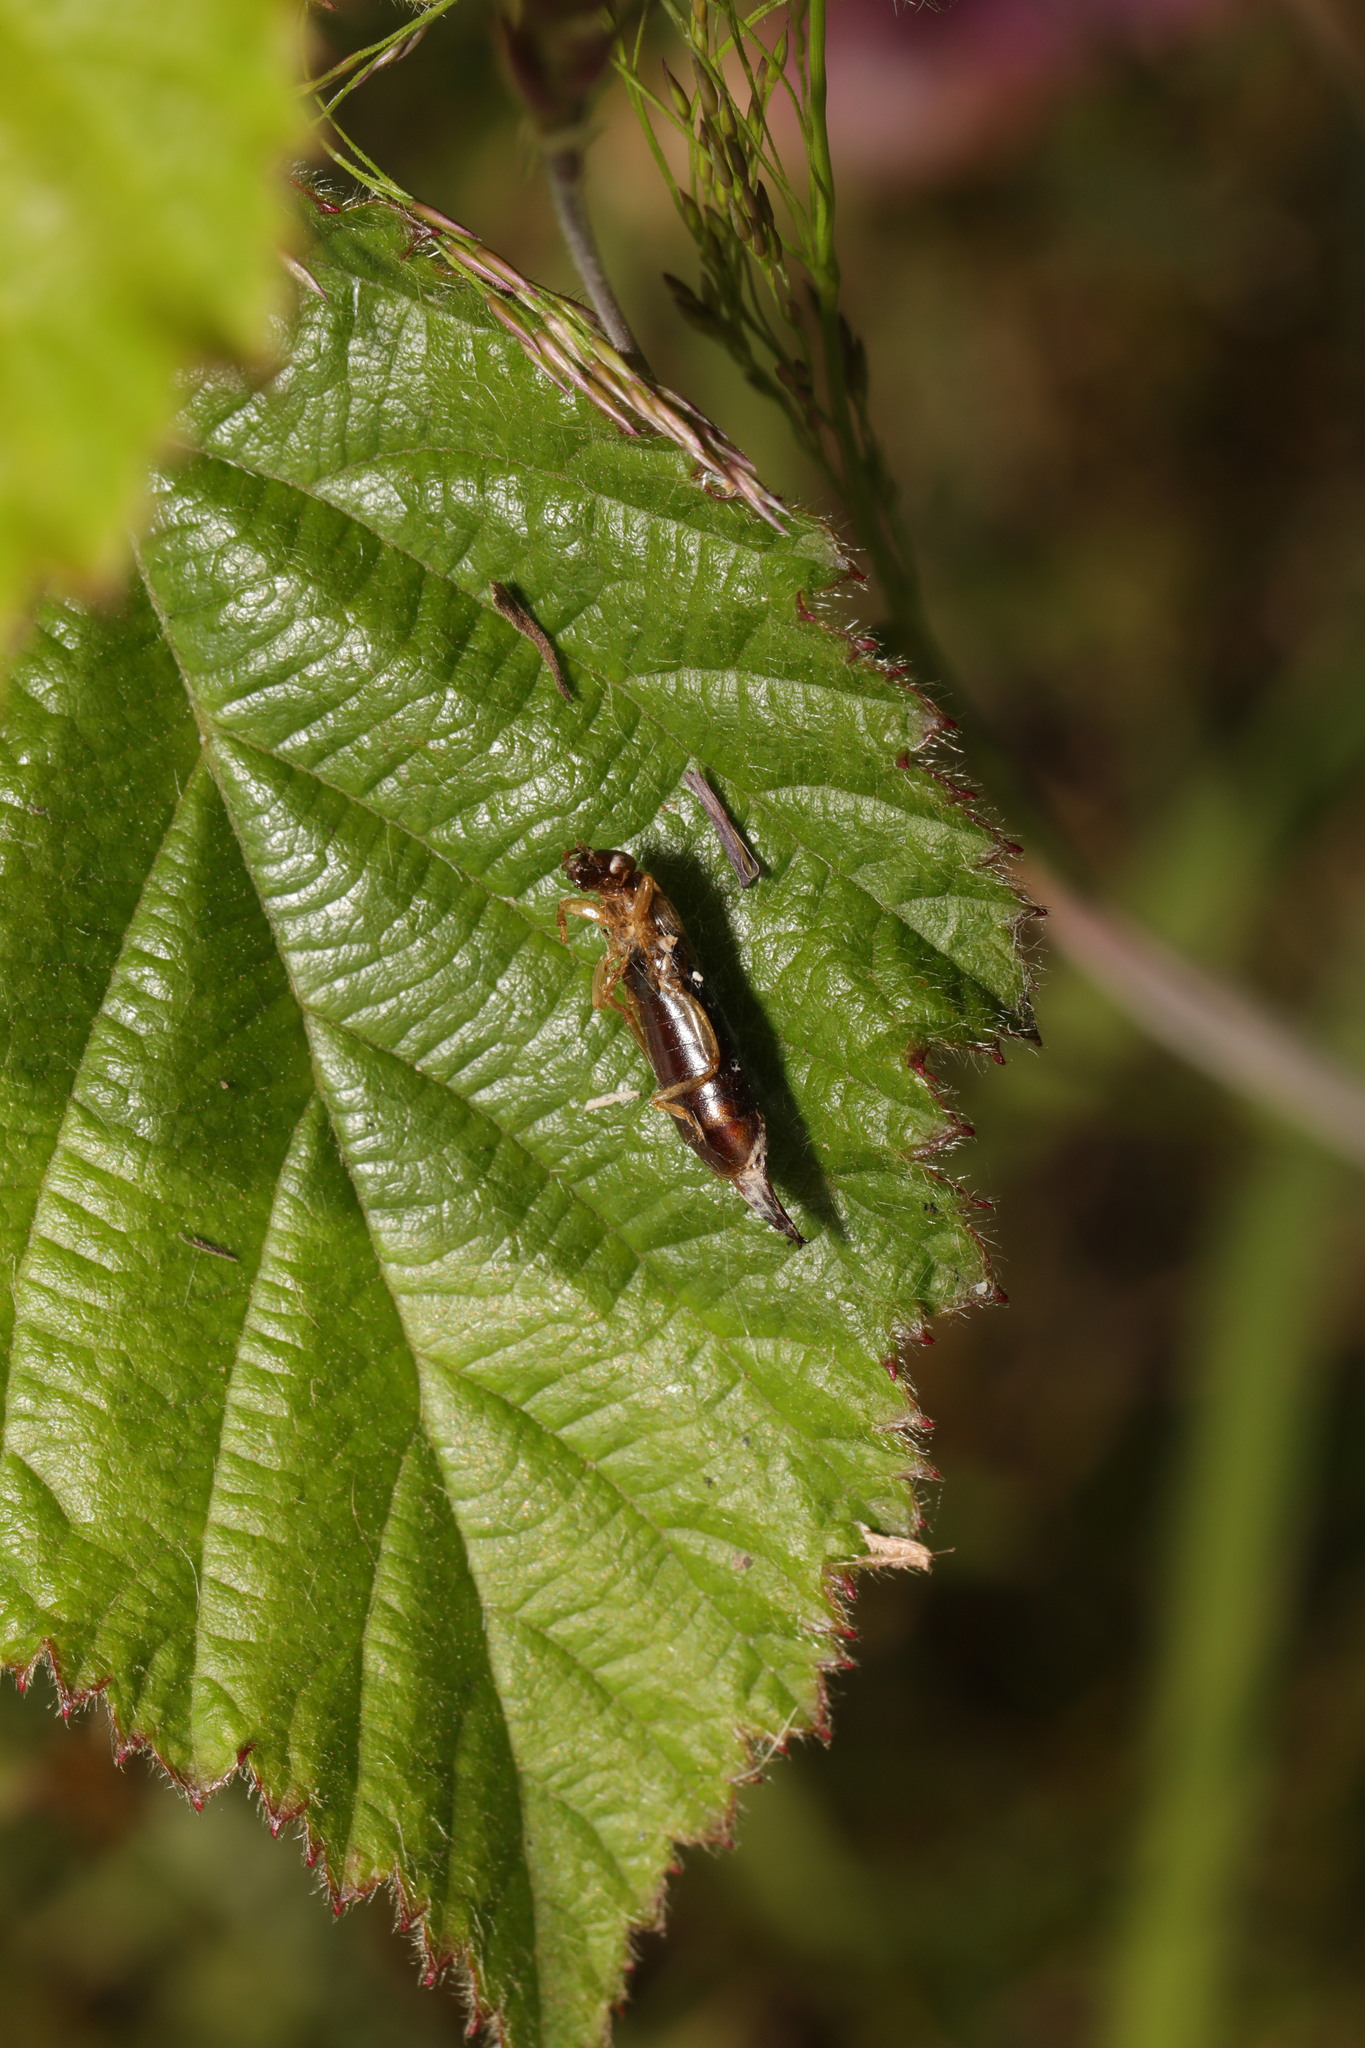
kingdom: Animalia
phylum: Arthropoda
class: Insecta
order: Dermaptera
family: Forficulidae
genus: Forficula
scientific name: Forficula
